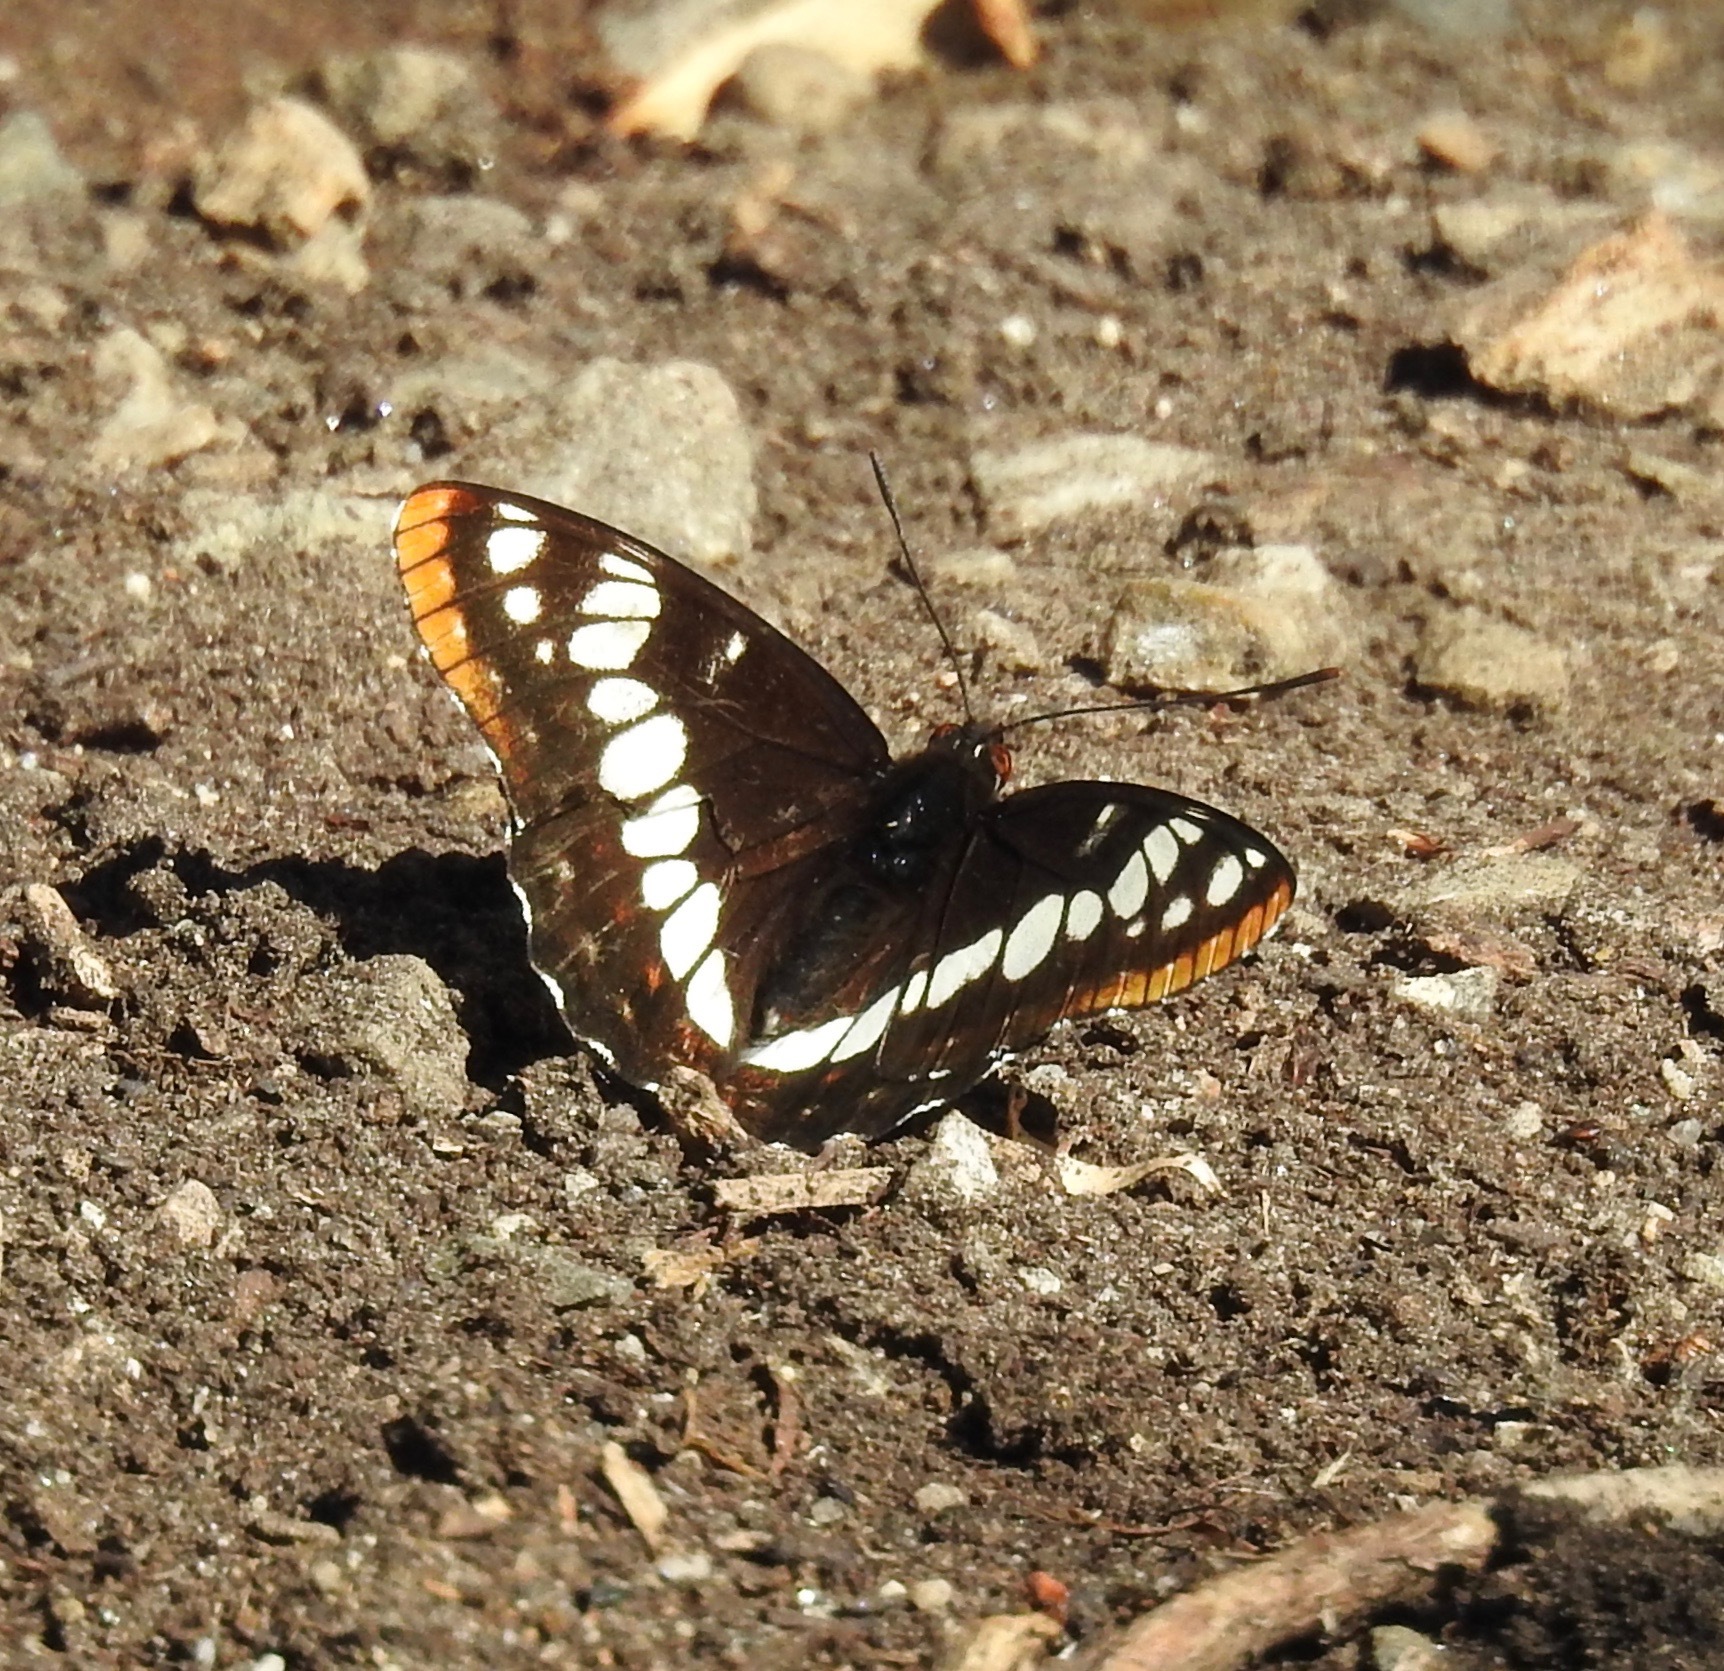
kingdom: Animalia
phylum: Arthropoda
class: Insecta
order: Lepidoptera
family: Nymphalidae
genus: Limenitis
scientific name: Limenitis lorquini
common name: Lorquin's admiral
